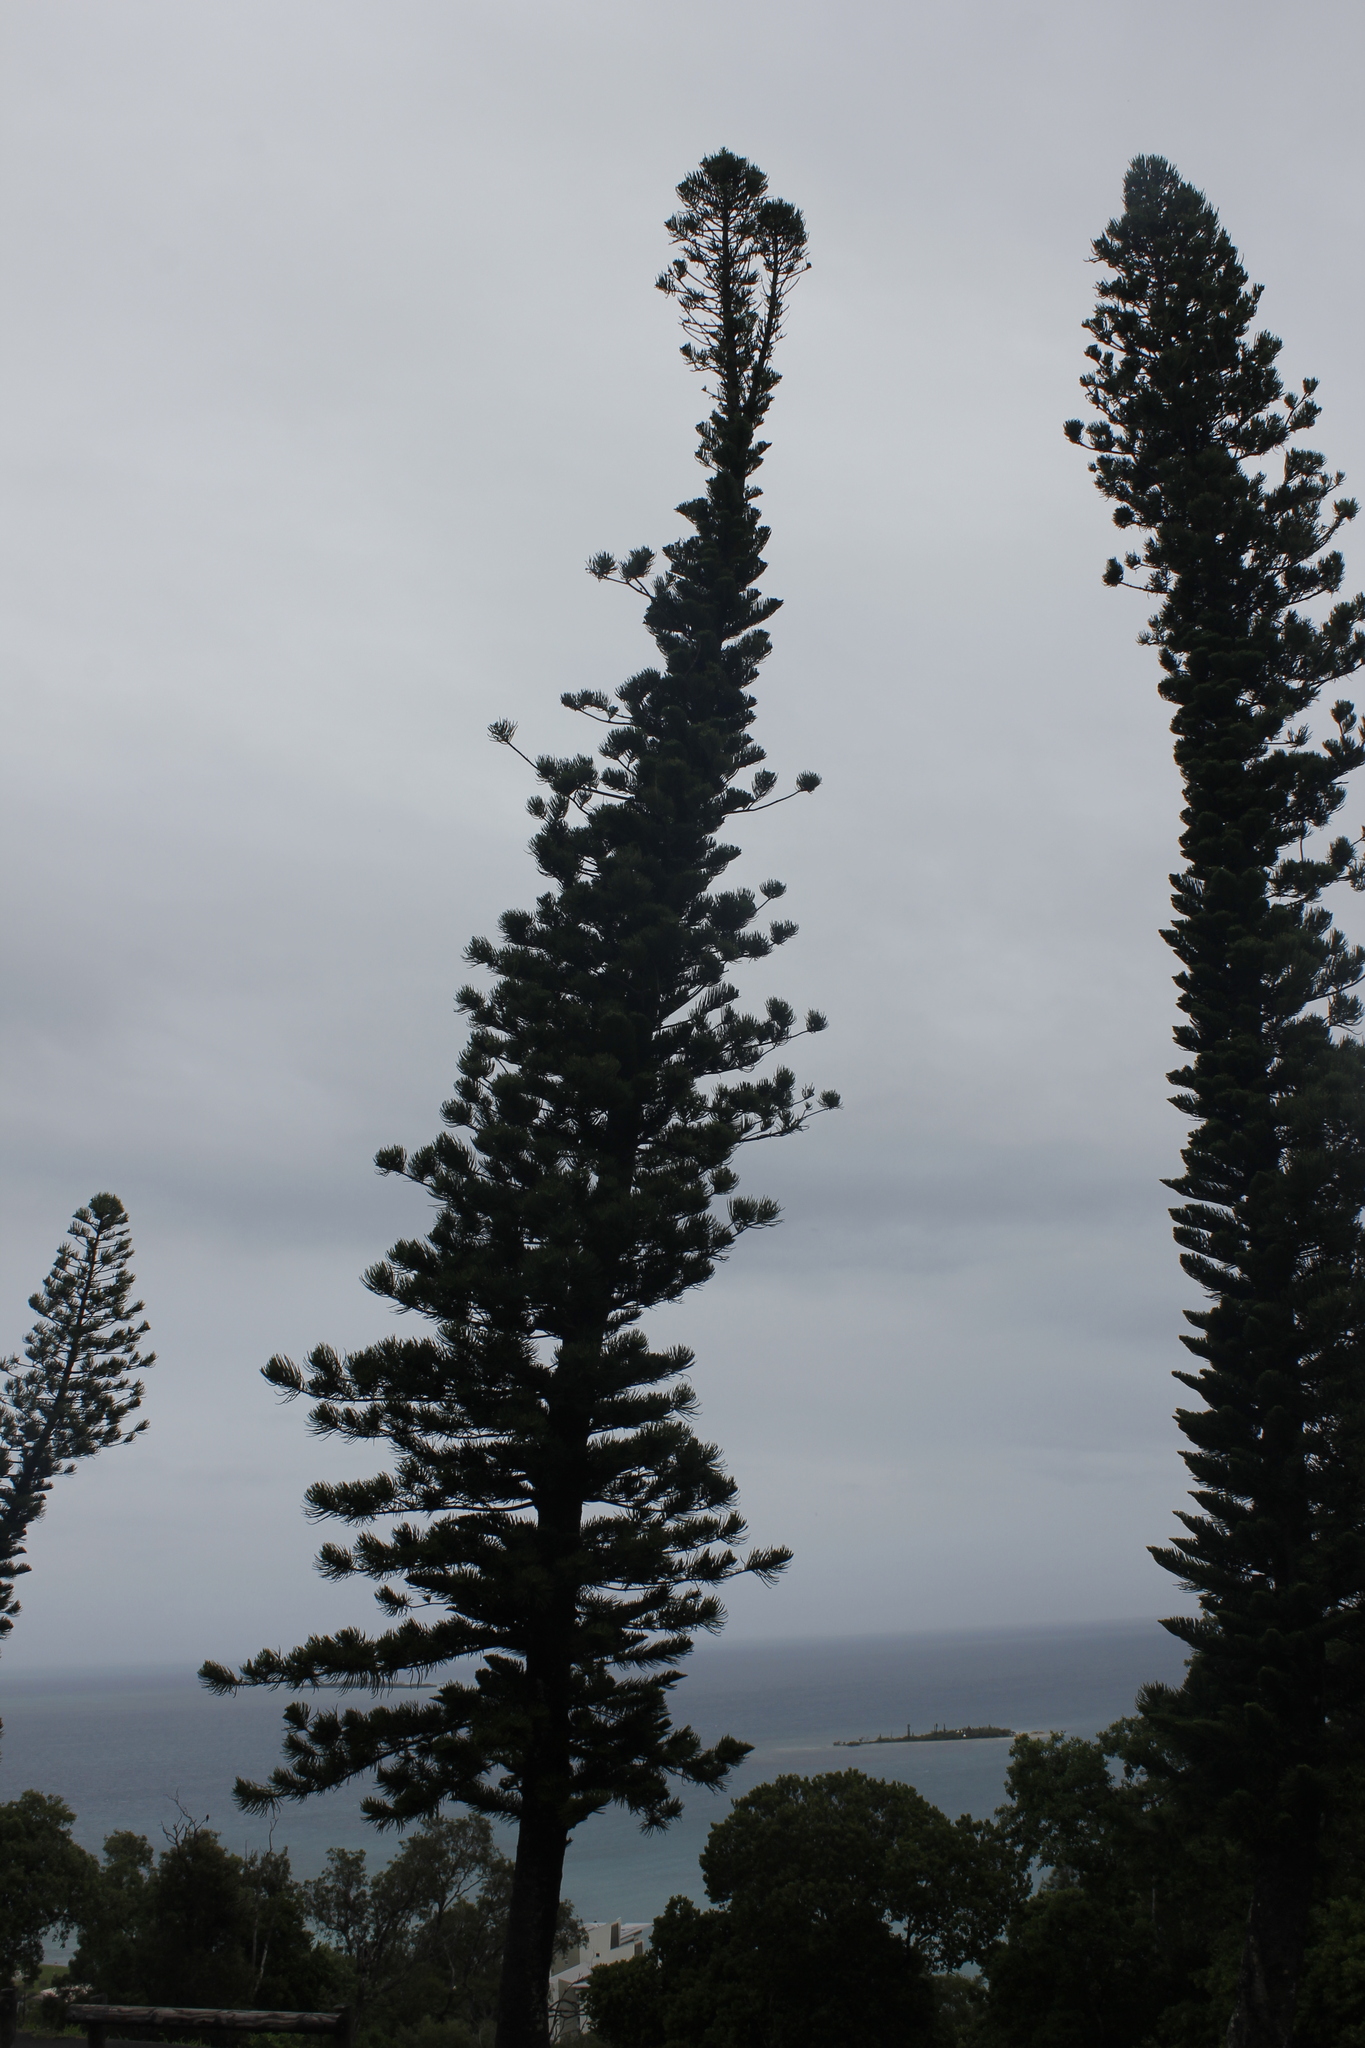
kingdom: Plantae
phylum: Tracheophyta
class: Pinopsida
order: Pinales
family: Araucariaceae
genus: Araucaria
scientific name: Araucaria columnaris
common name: Coral reef araucaria
